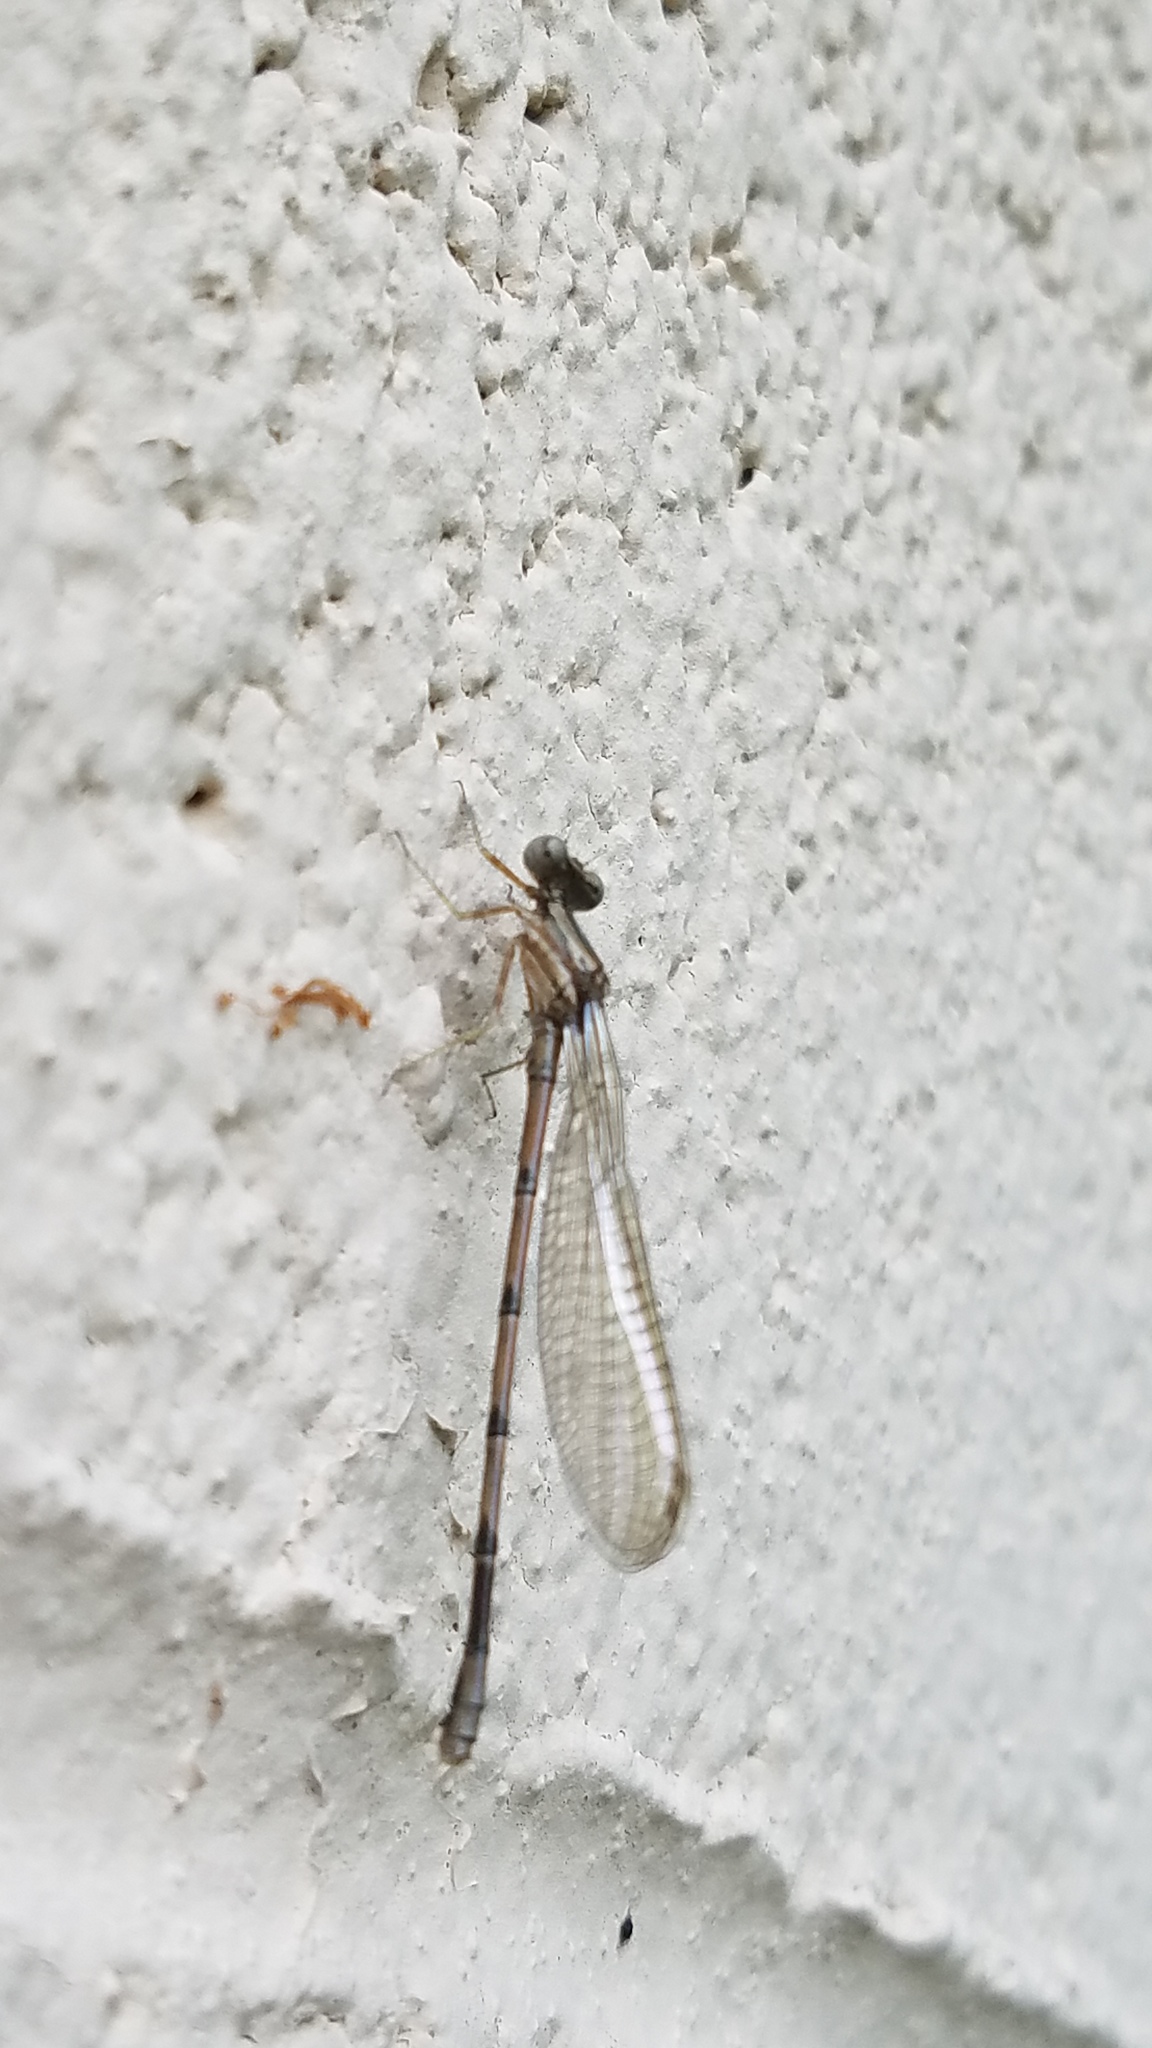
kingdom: Animalia
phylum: Arthropoda
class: Insecta
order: Odonata
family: Coenagrionidae
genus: Argia
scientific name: Argia fumipennis
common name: Variable dancer
